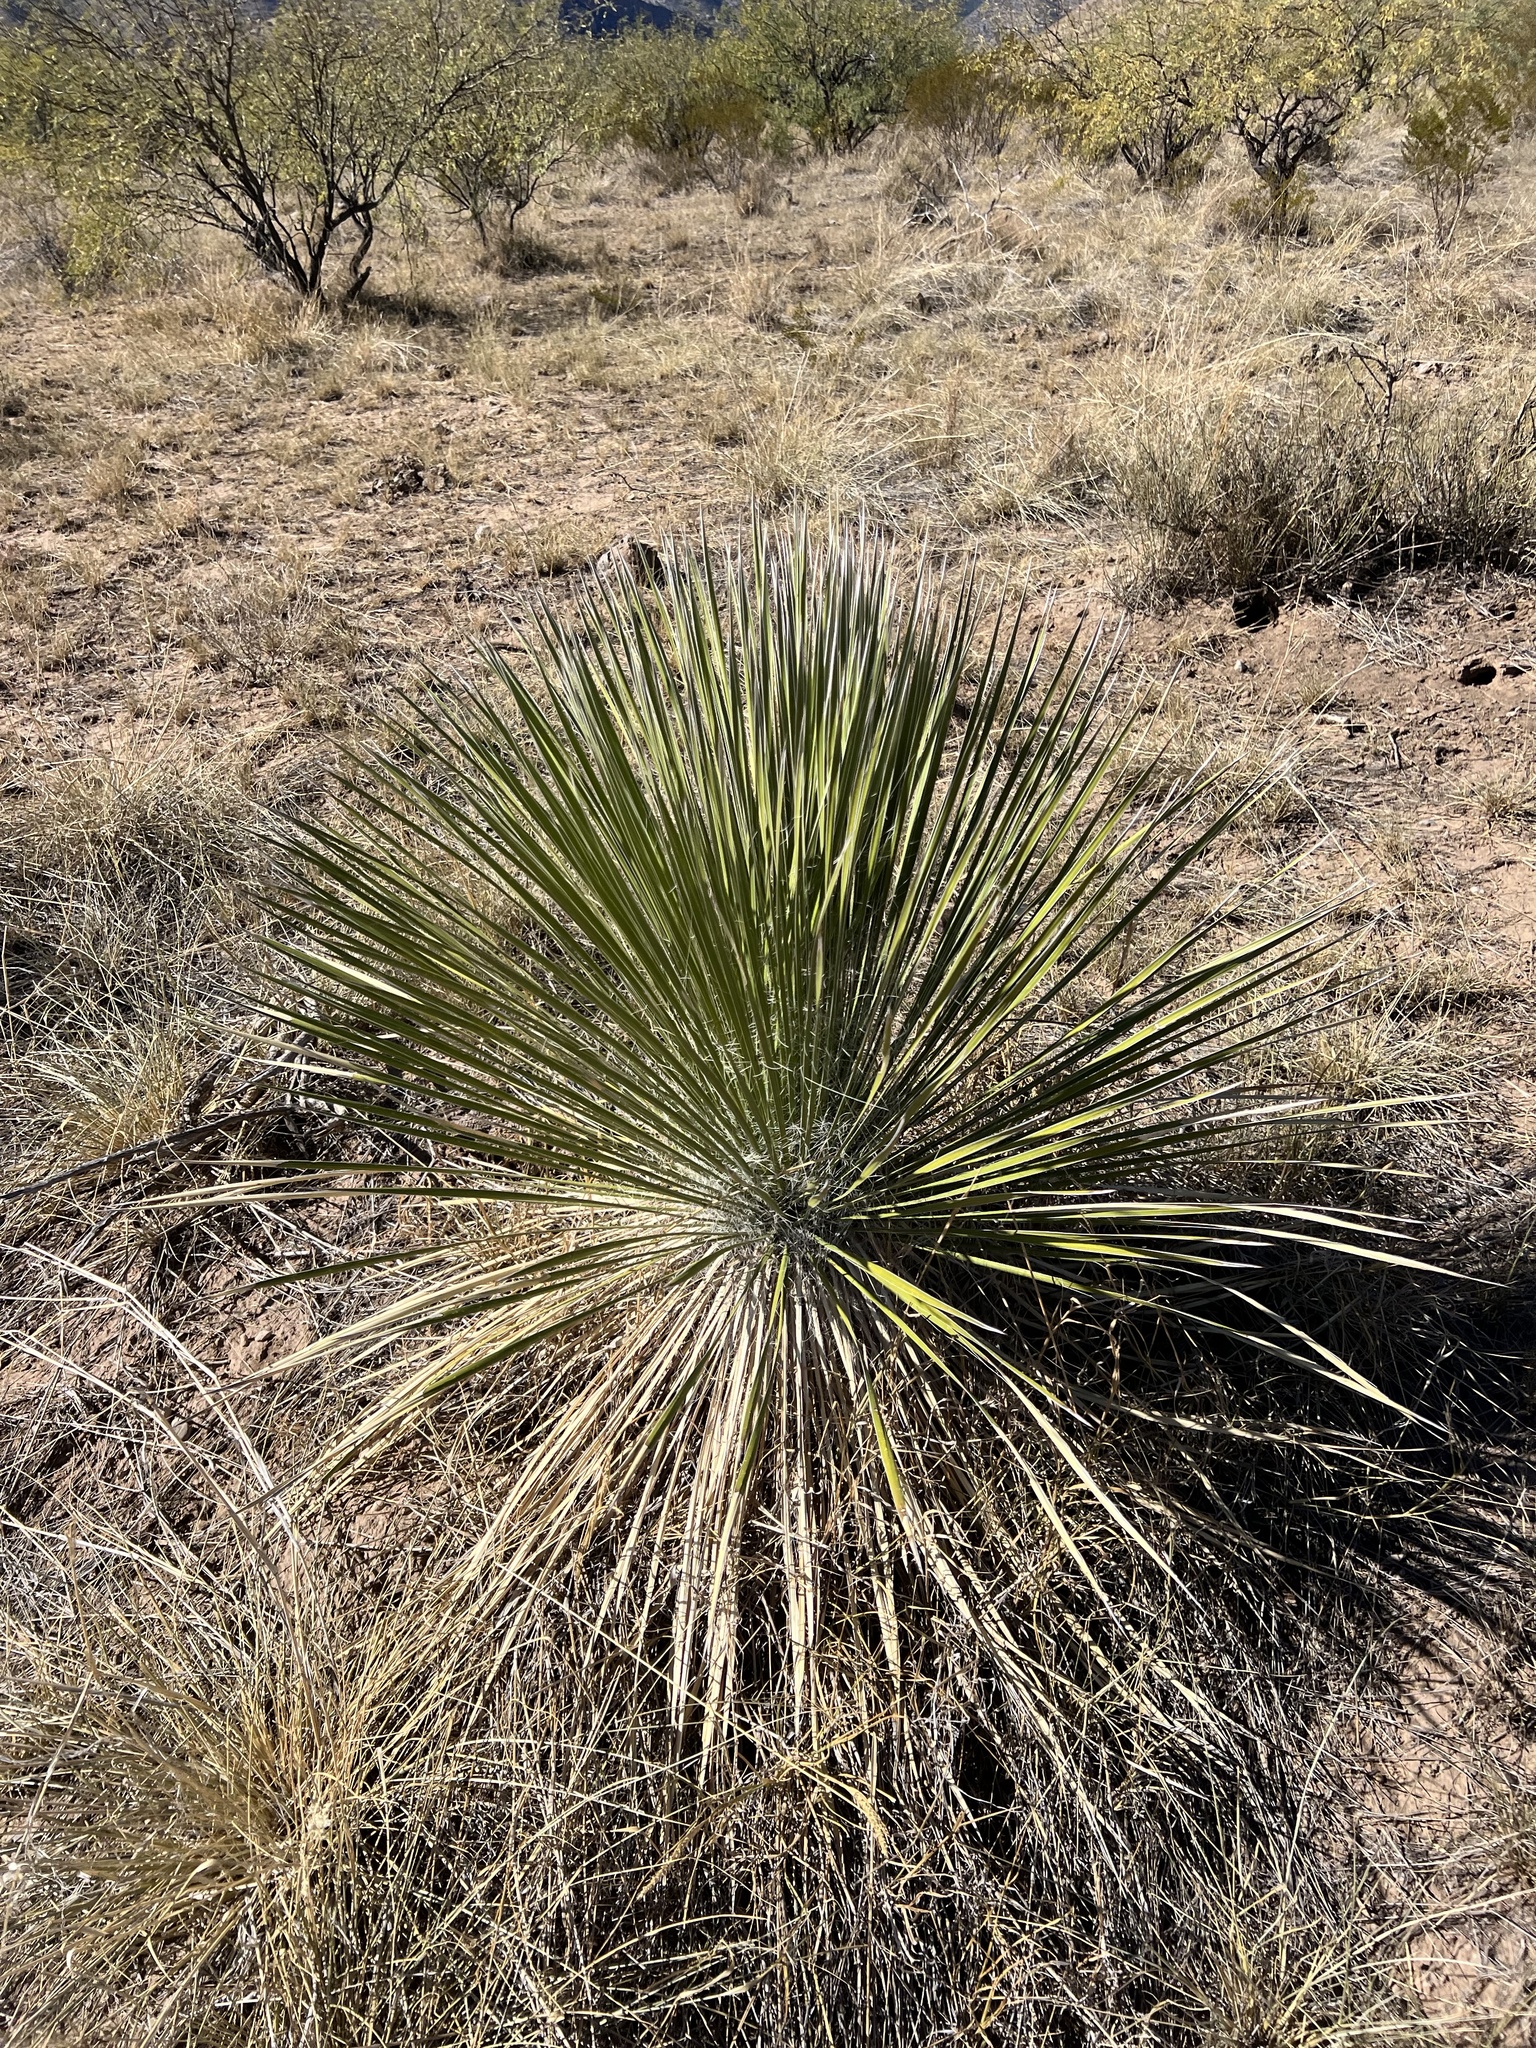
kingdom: Plantae
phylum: Tracheophyta
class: Liliopsida
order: Asparagales
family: Asparagaceae
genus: Yucca
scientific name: Yucca elata
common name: Palmella
